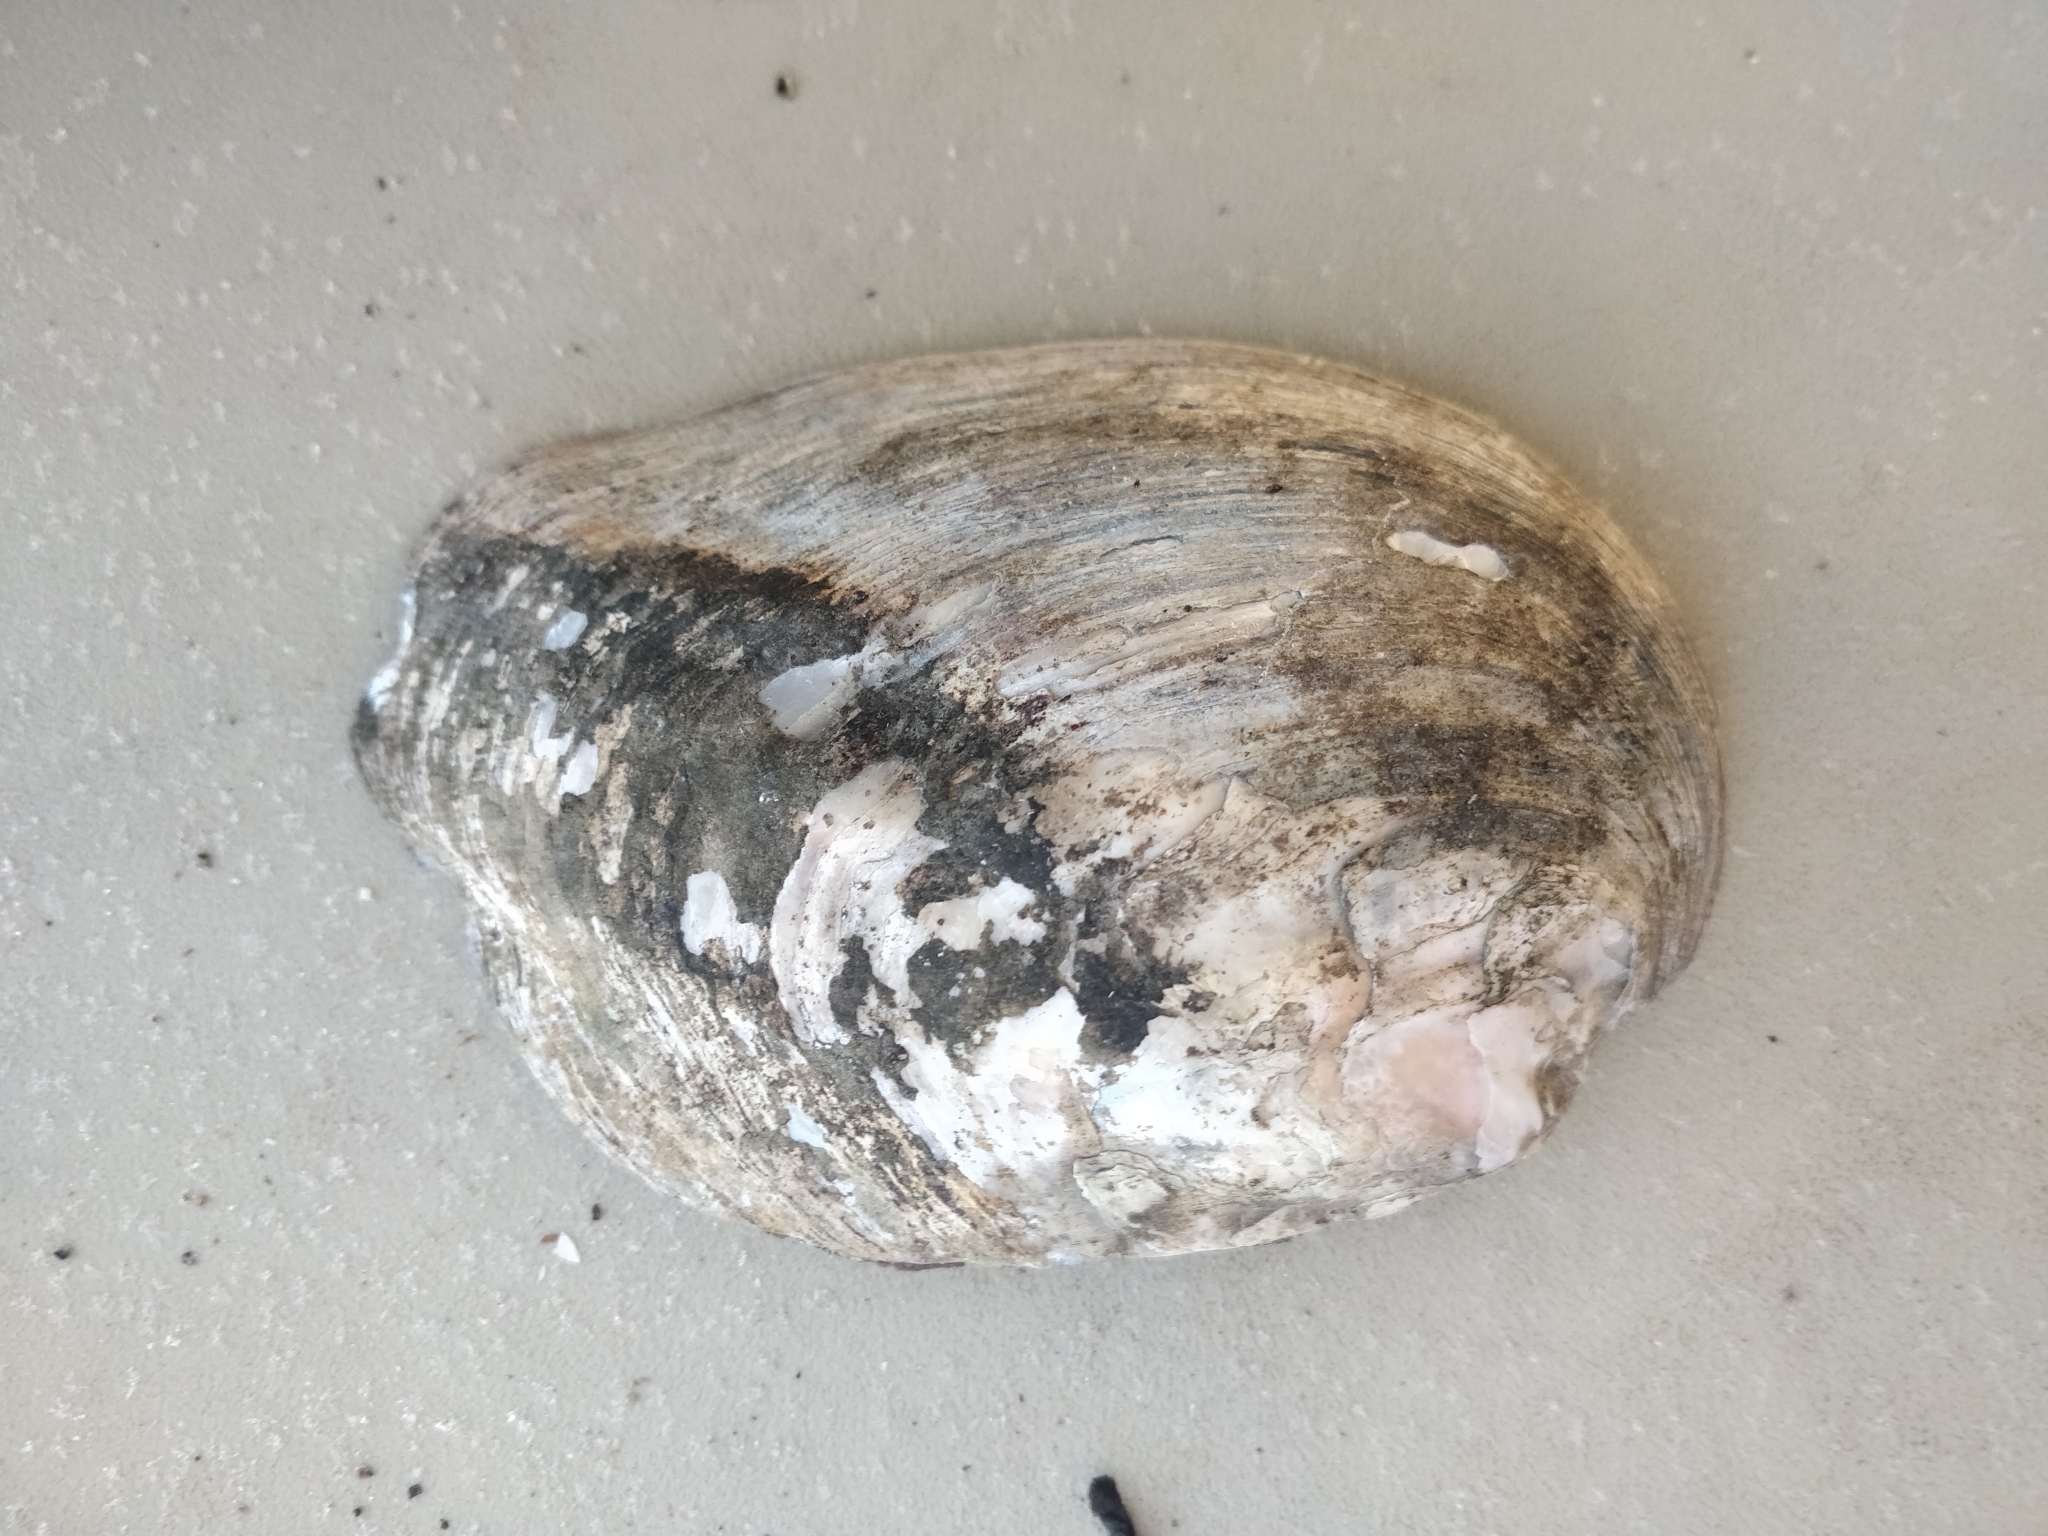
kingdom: Animalia
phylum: Mollusca
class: Bivalvia
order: Unionida
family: Unionidae
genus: Amblema
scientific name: Amblema plicata
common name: Threeridge
